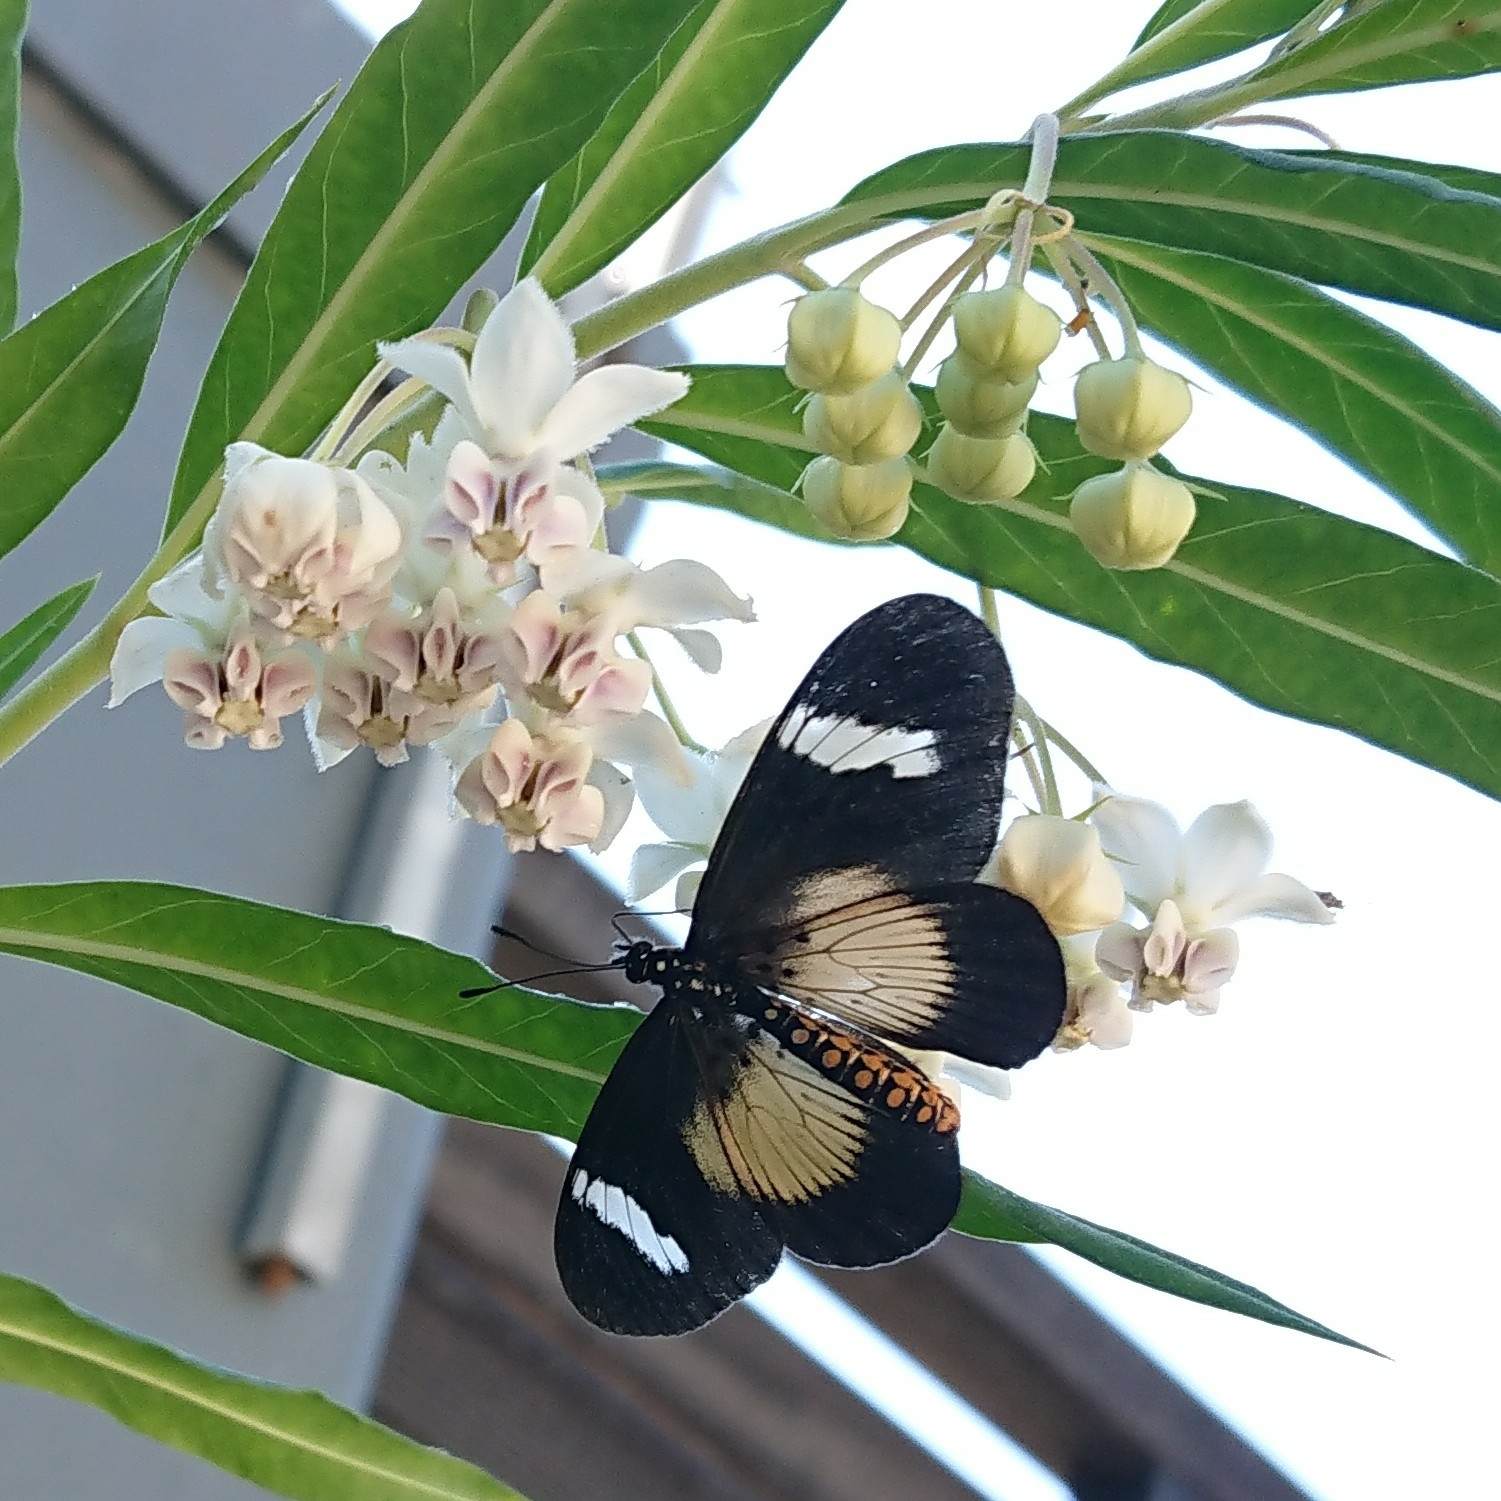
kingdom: Animalia
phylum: Arthropoda
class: Insecta
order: Lepidoptera
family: Nymphalidae
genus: Acraea
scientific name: Acraea esebria
